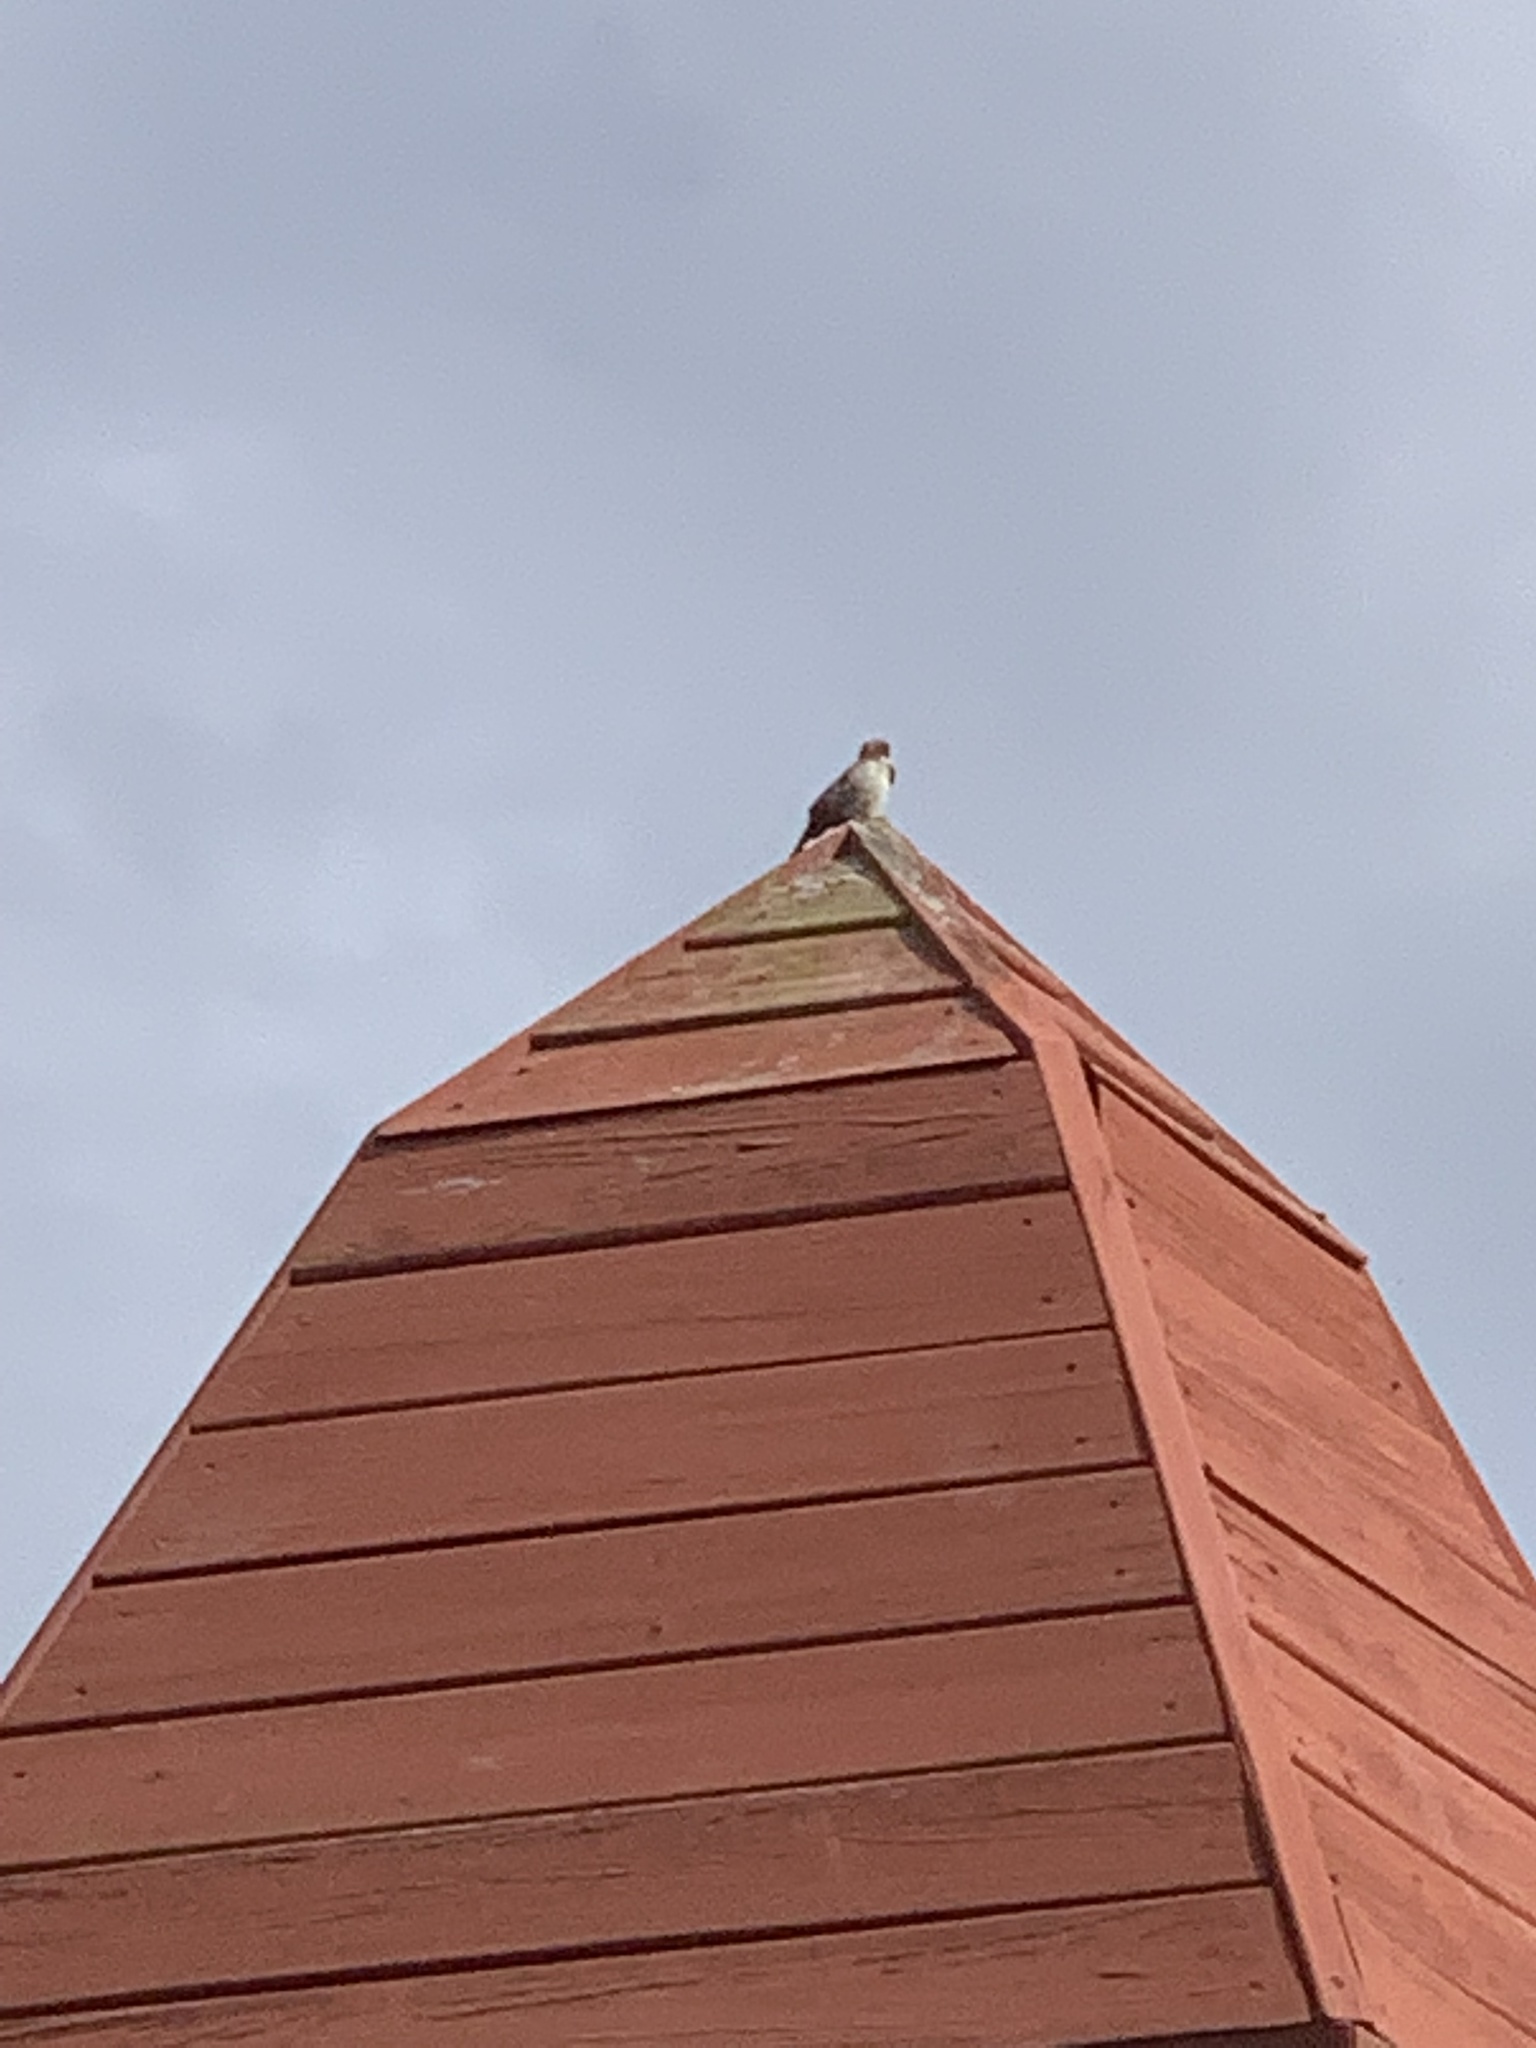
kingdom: Animalia
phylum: Chordata
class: Aves
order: Passeriformes
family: Passeridae
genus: Passer
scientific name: Passer domesticus
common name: House sparrow
